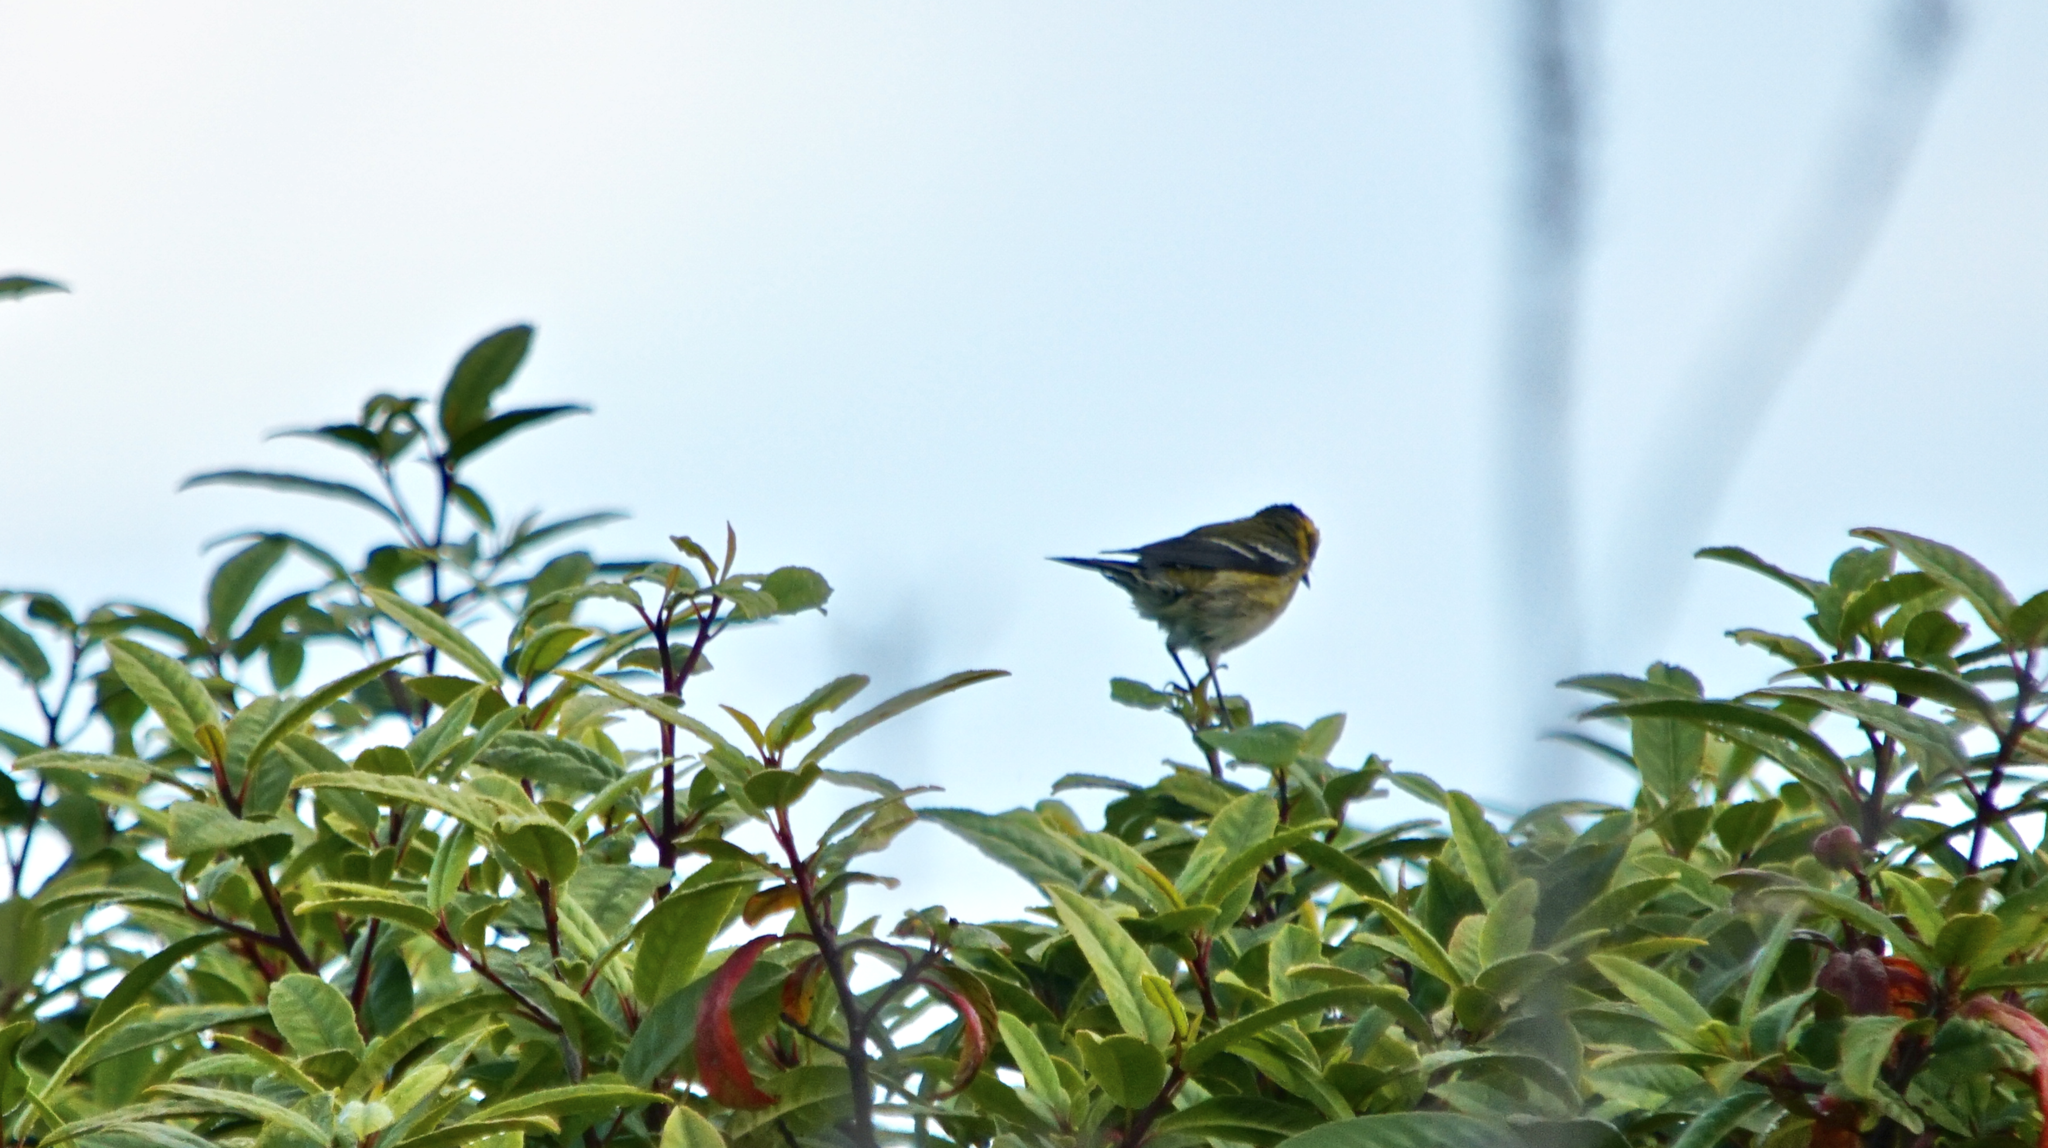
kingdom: Animalia
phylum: Chordata
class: Aves
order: Passeriformes
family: Parulidae
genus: Setophaga
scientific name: Setophaga townsendi
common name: Townsend's warbler
